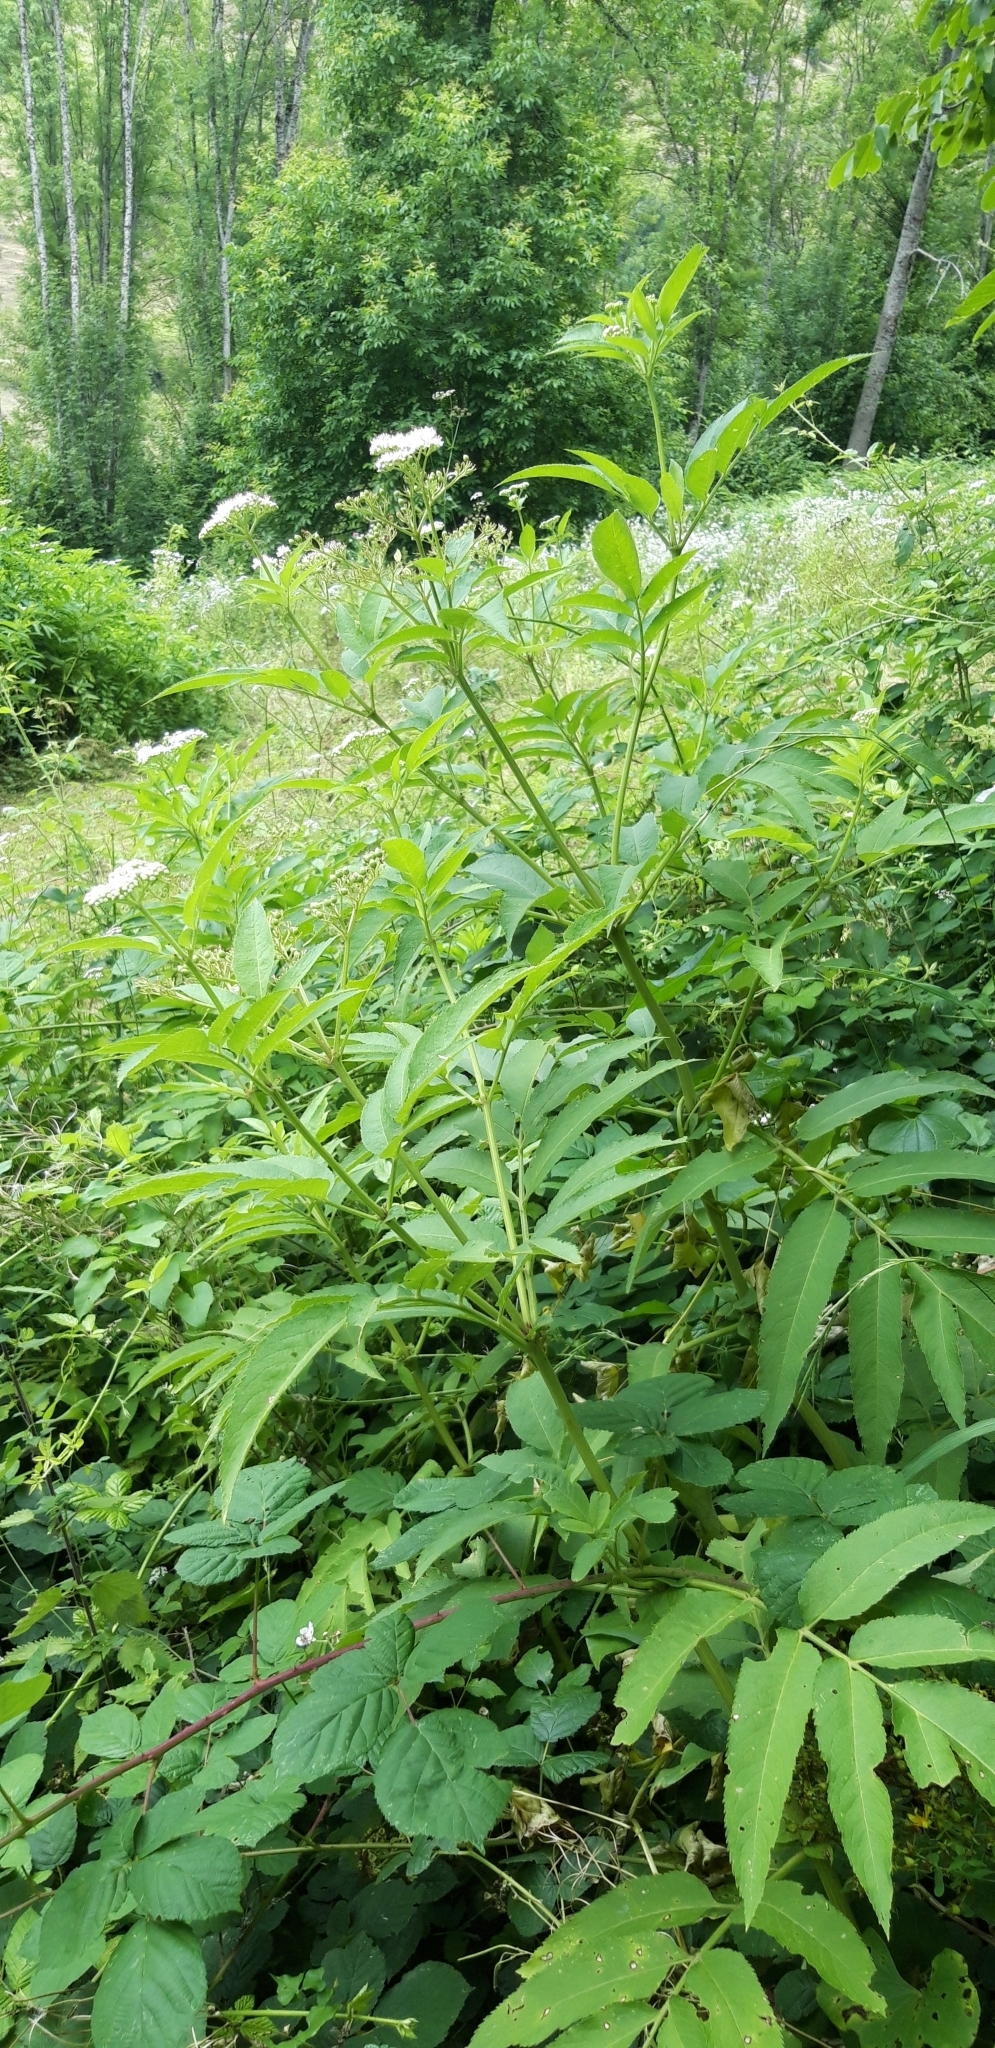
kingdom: Plantae
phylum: Tracheophyta
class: Magnoliopsida
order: Dipsacales
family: Viburnaceae
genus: Sambucus
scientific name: Sambucus ebulus
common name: Dwarf elder
